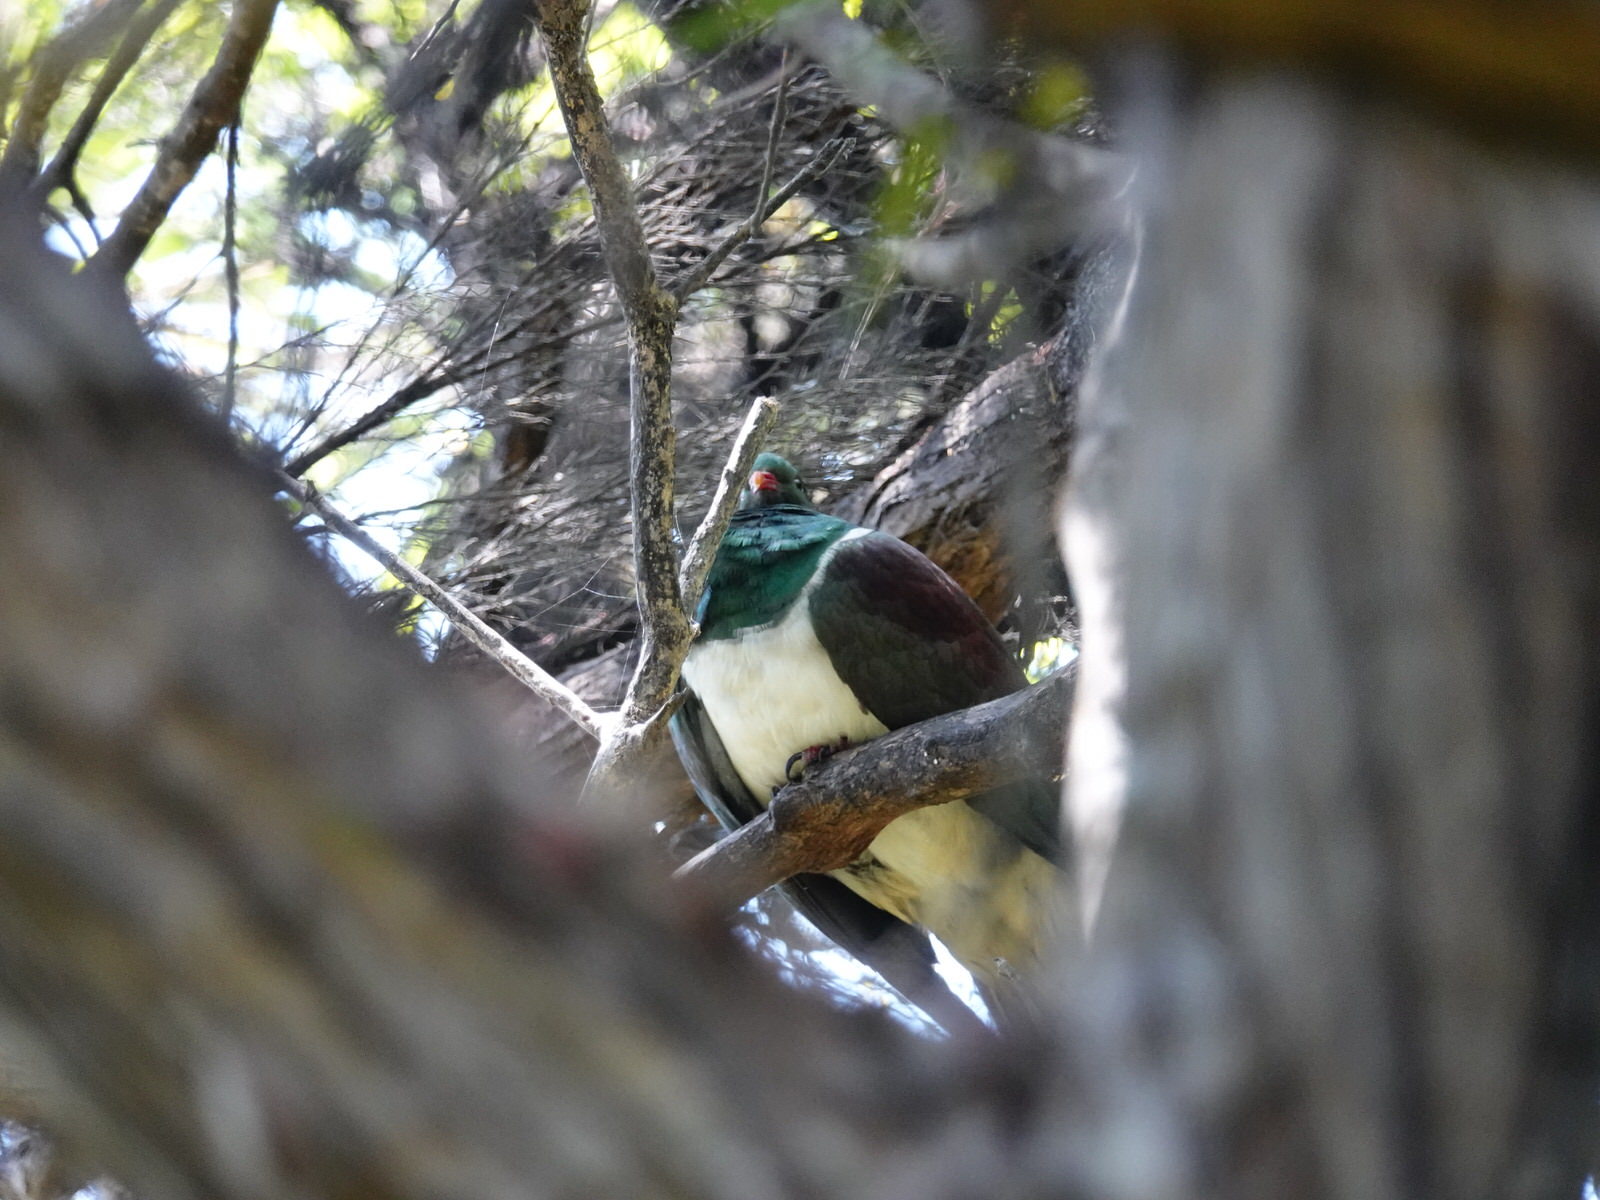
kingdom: Animalia
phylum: Chordata
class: Aves
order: Columbiformes
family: Columbidae
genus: Hemiphaga
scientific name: Hemiphaga novaeseelandiae
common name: New zealand pigeon
